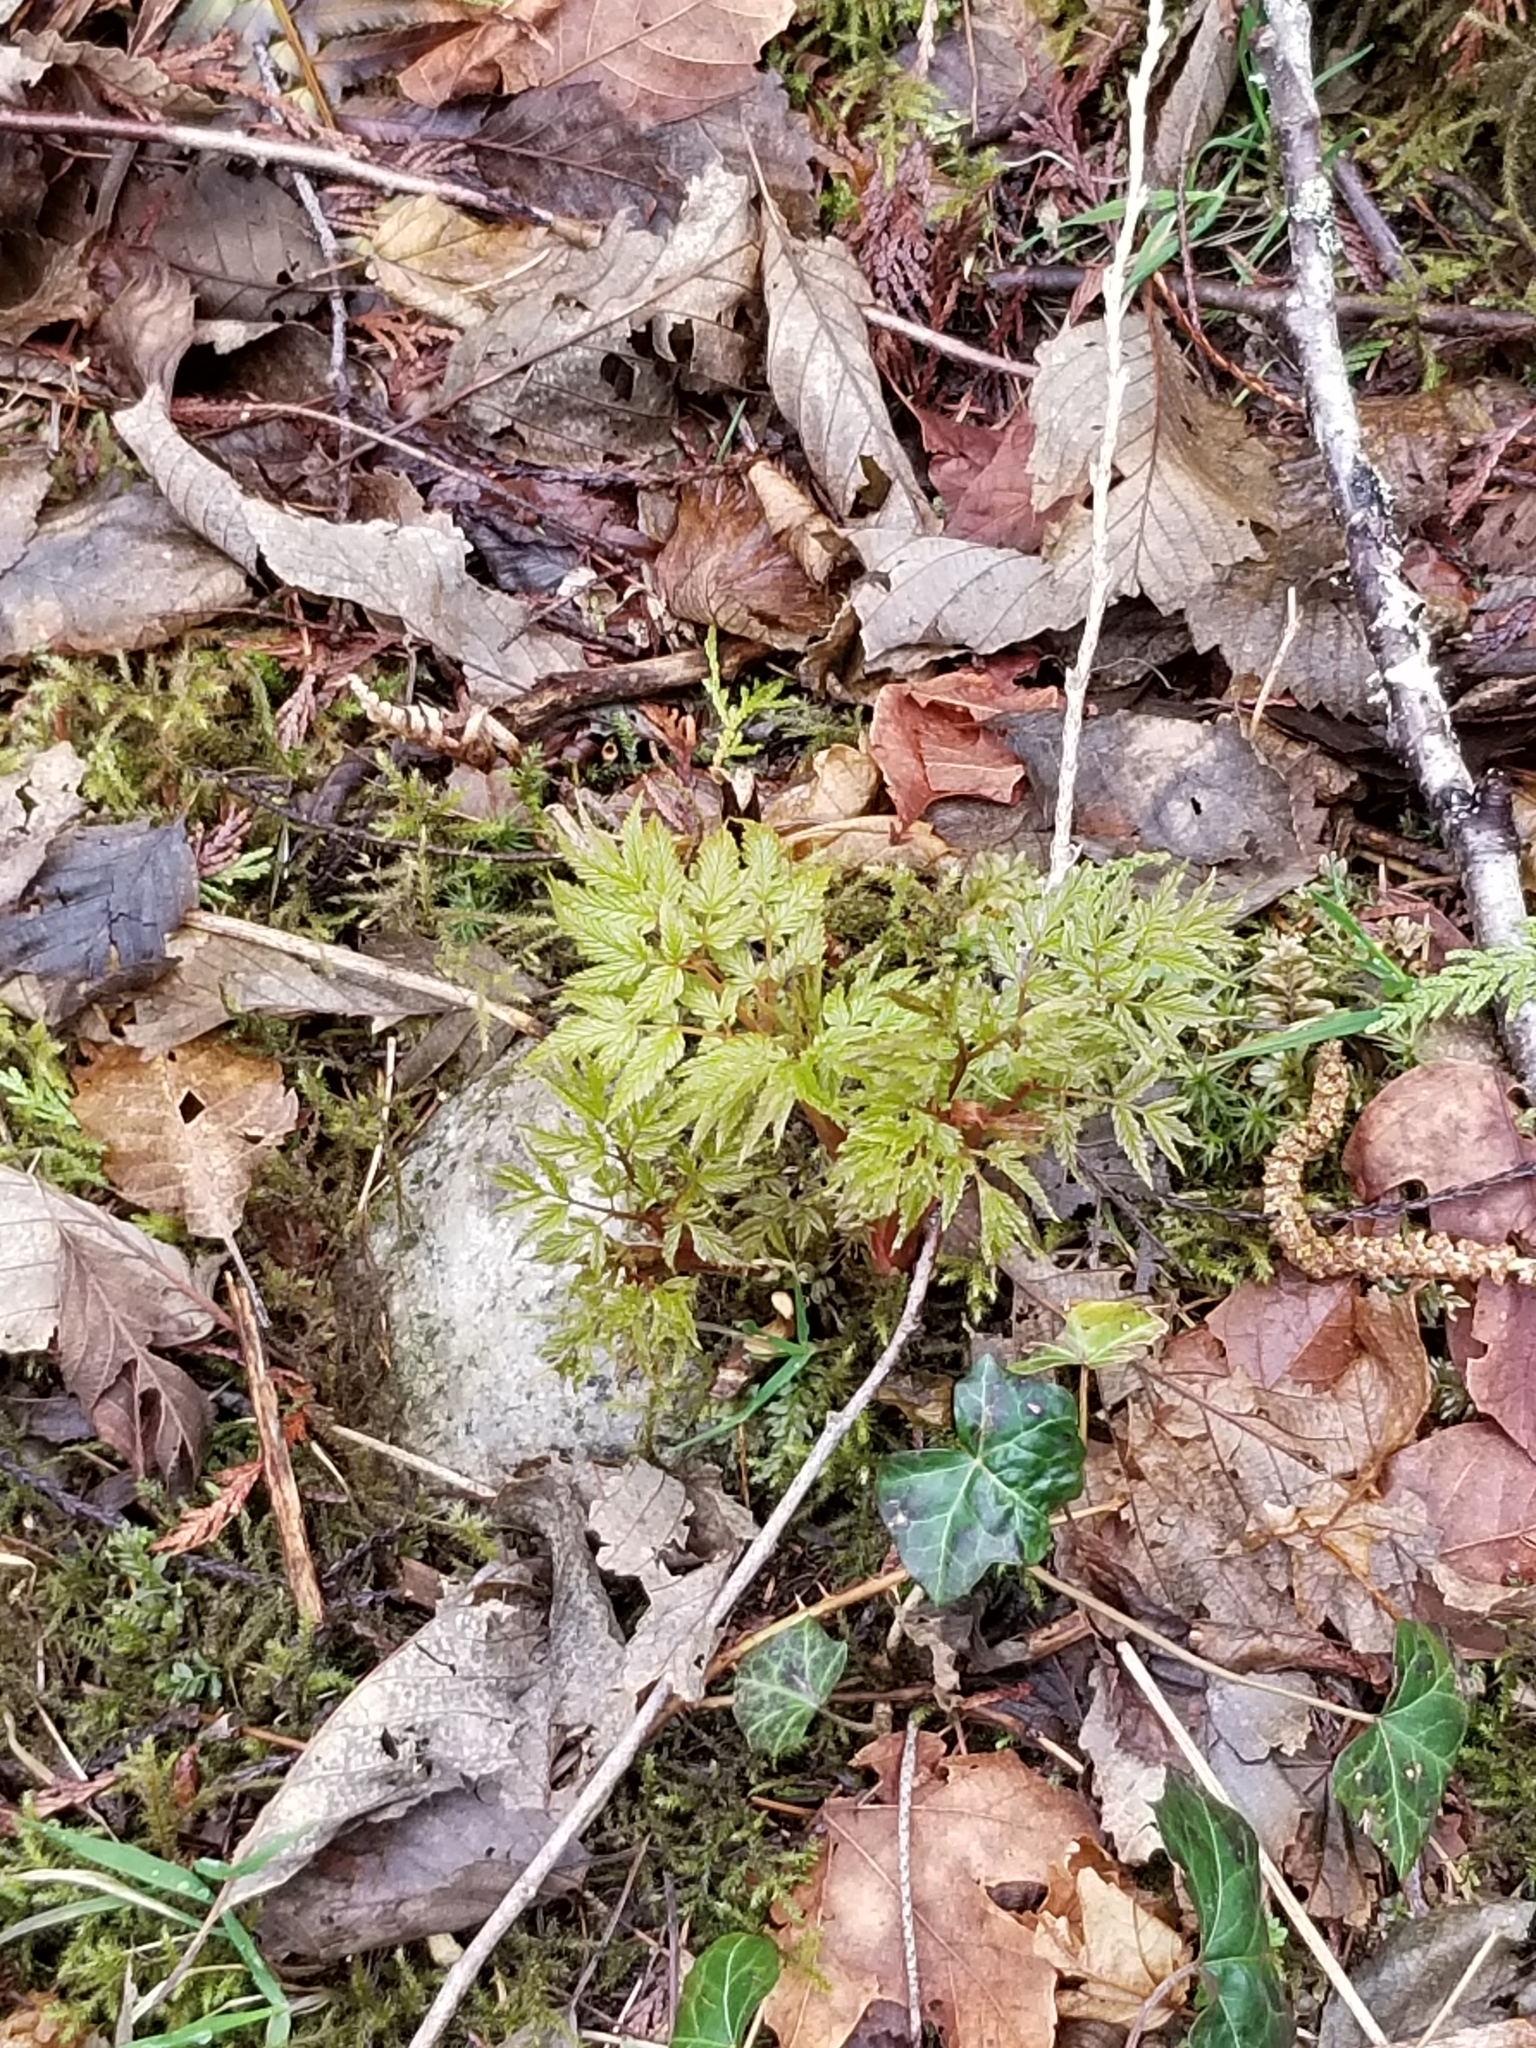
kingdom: Plantae
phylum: Tracheophyta
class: Magnoliopsida
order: Rosales
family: Rosaceae
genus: Aruncus
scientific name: Aruncus dioicus
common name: Buck's-beard
